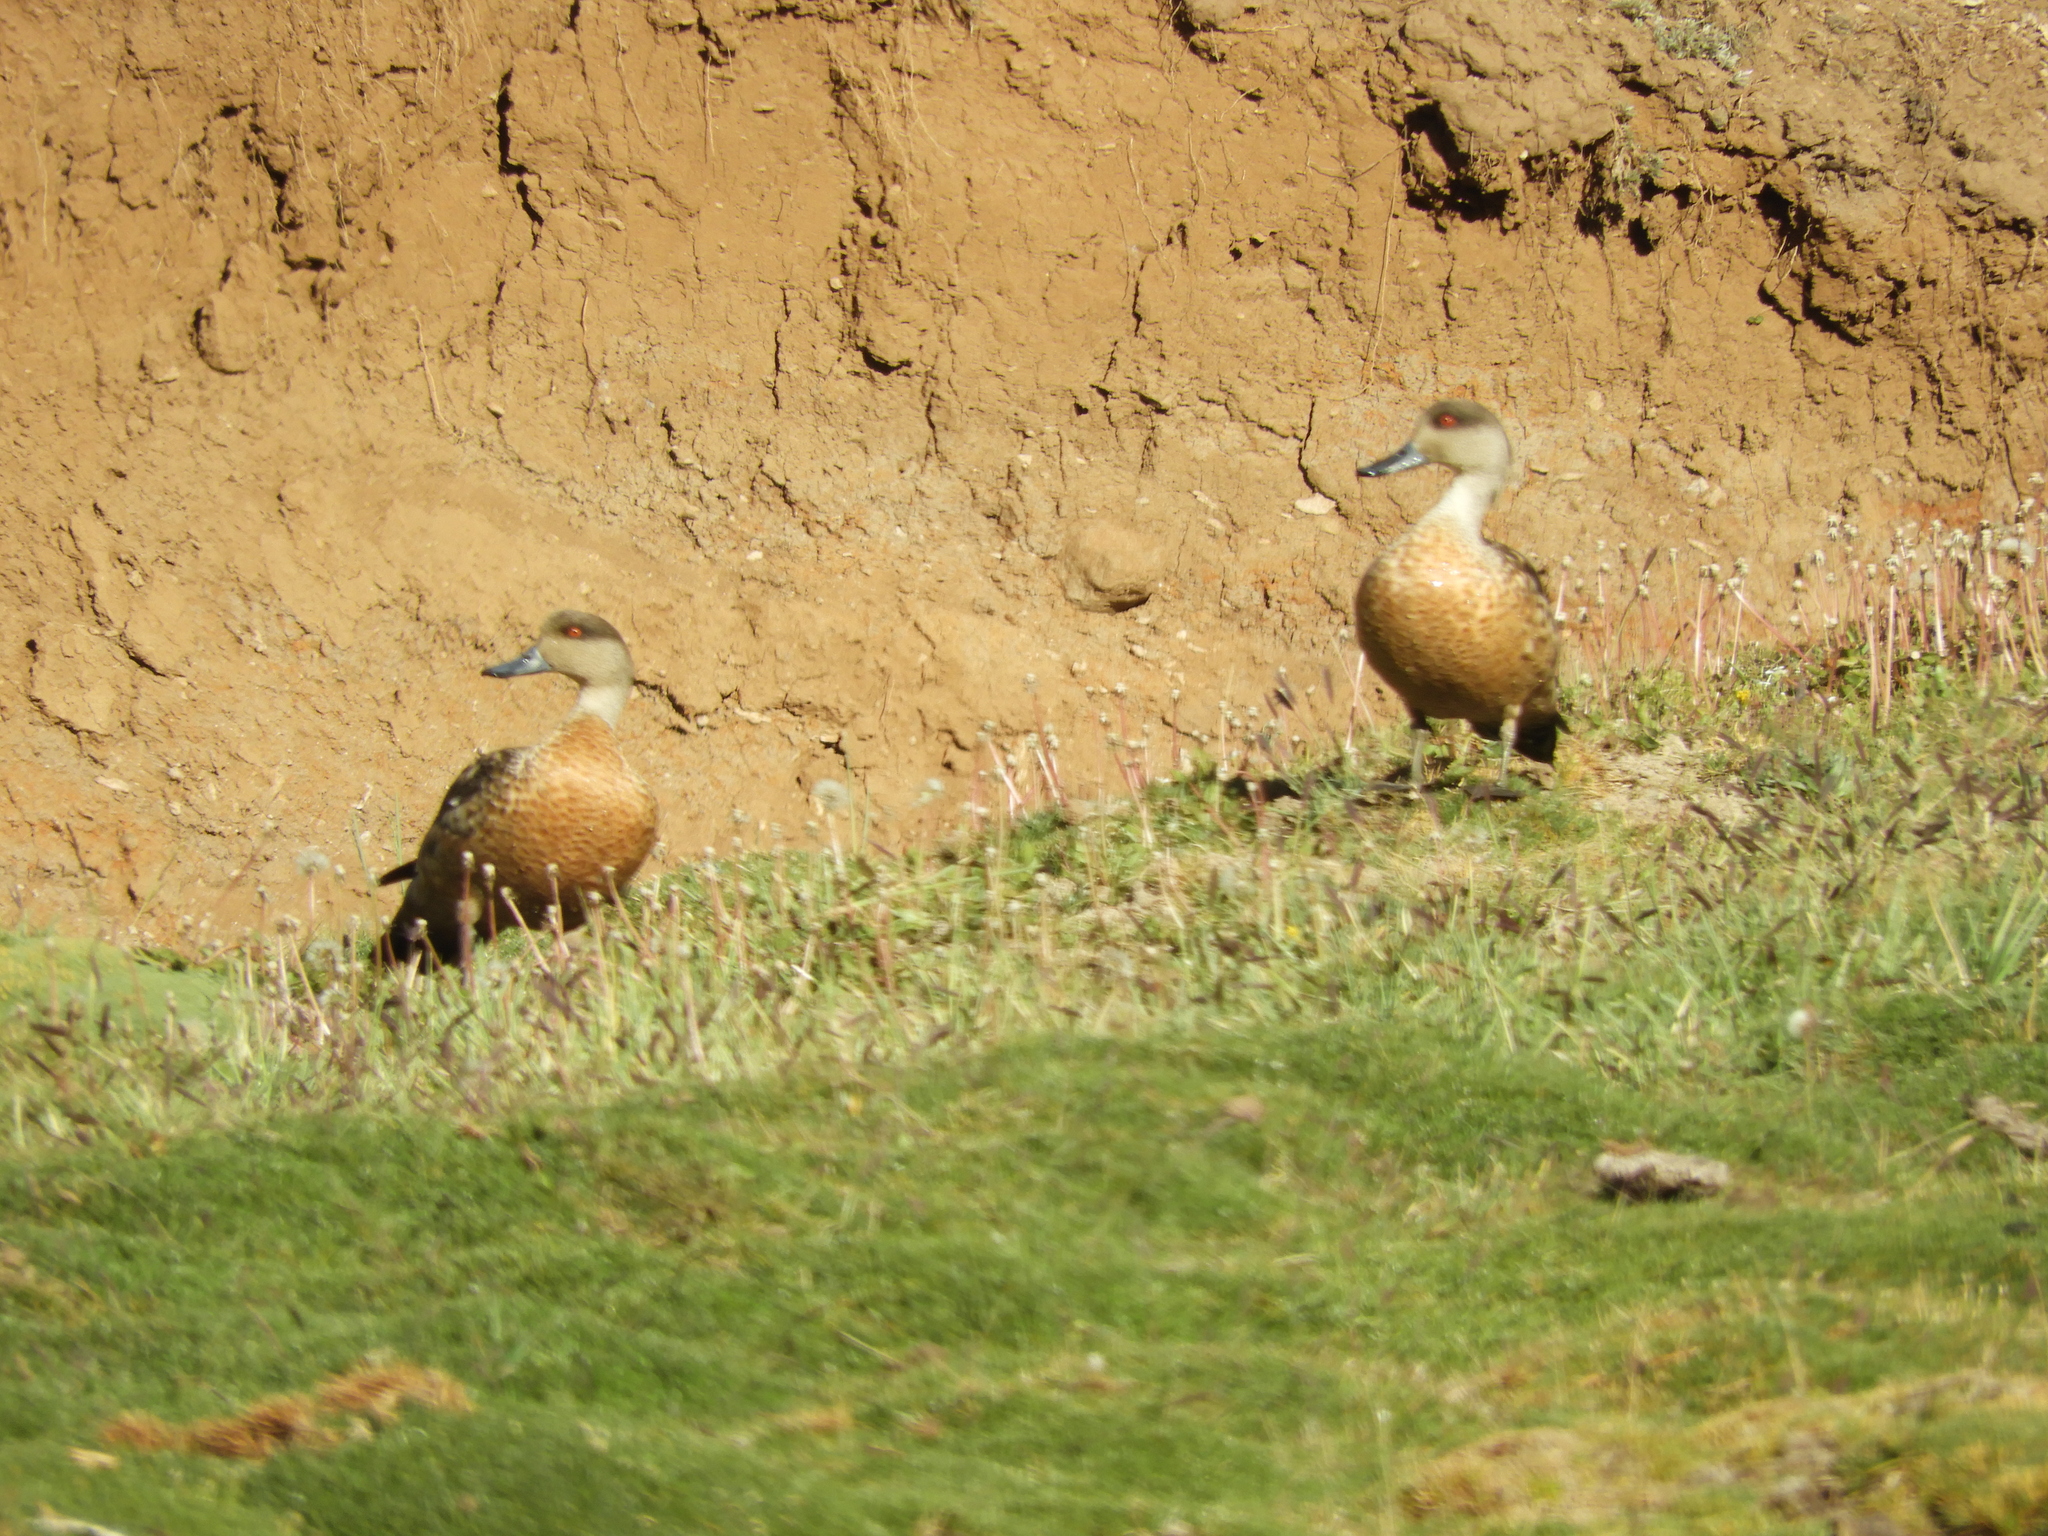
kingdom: Animalia
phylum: Chordata
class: Aves
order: Anseriformes
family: Anatidae
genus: Lophonetta
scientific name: Lophonetta specularioides
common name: Crested duck
